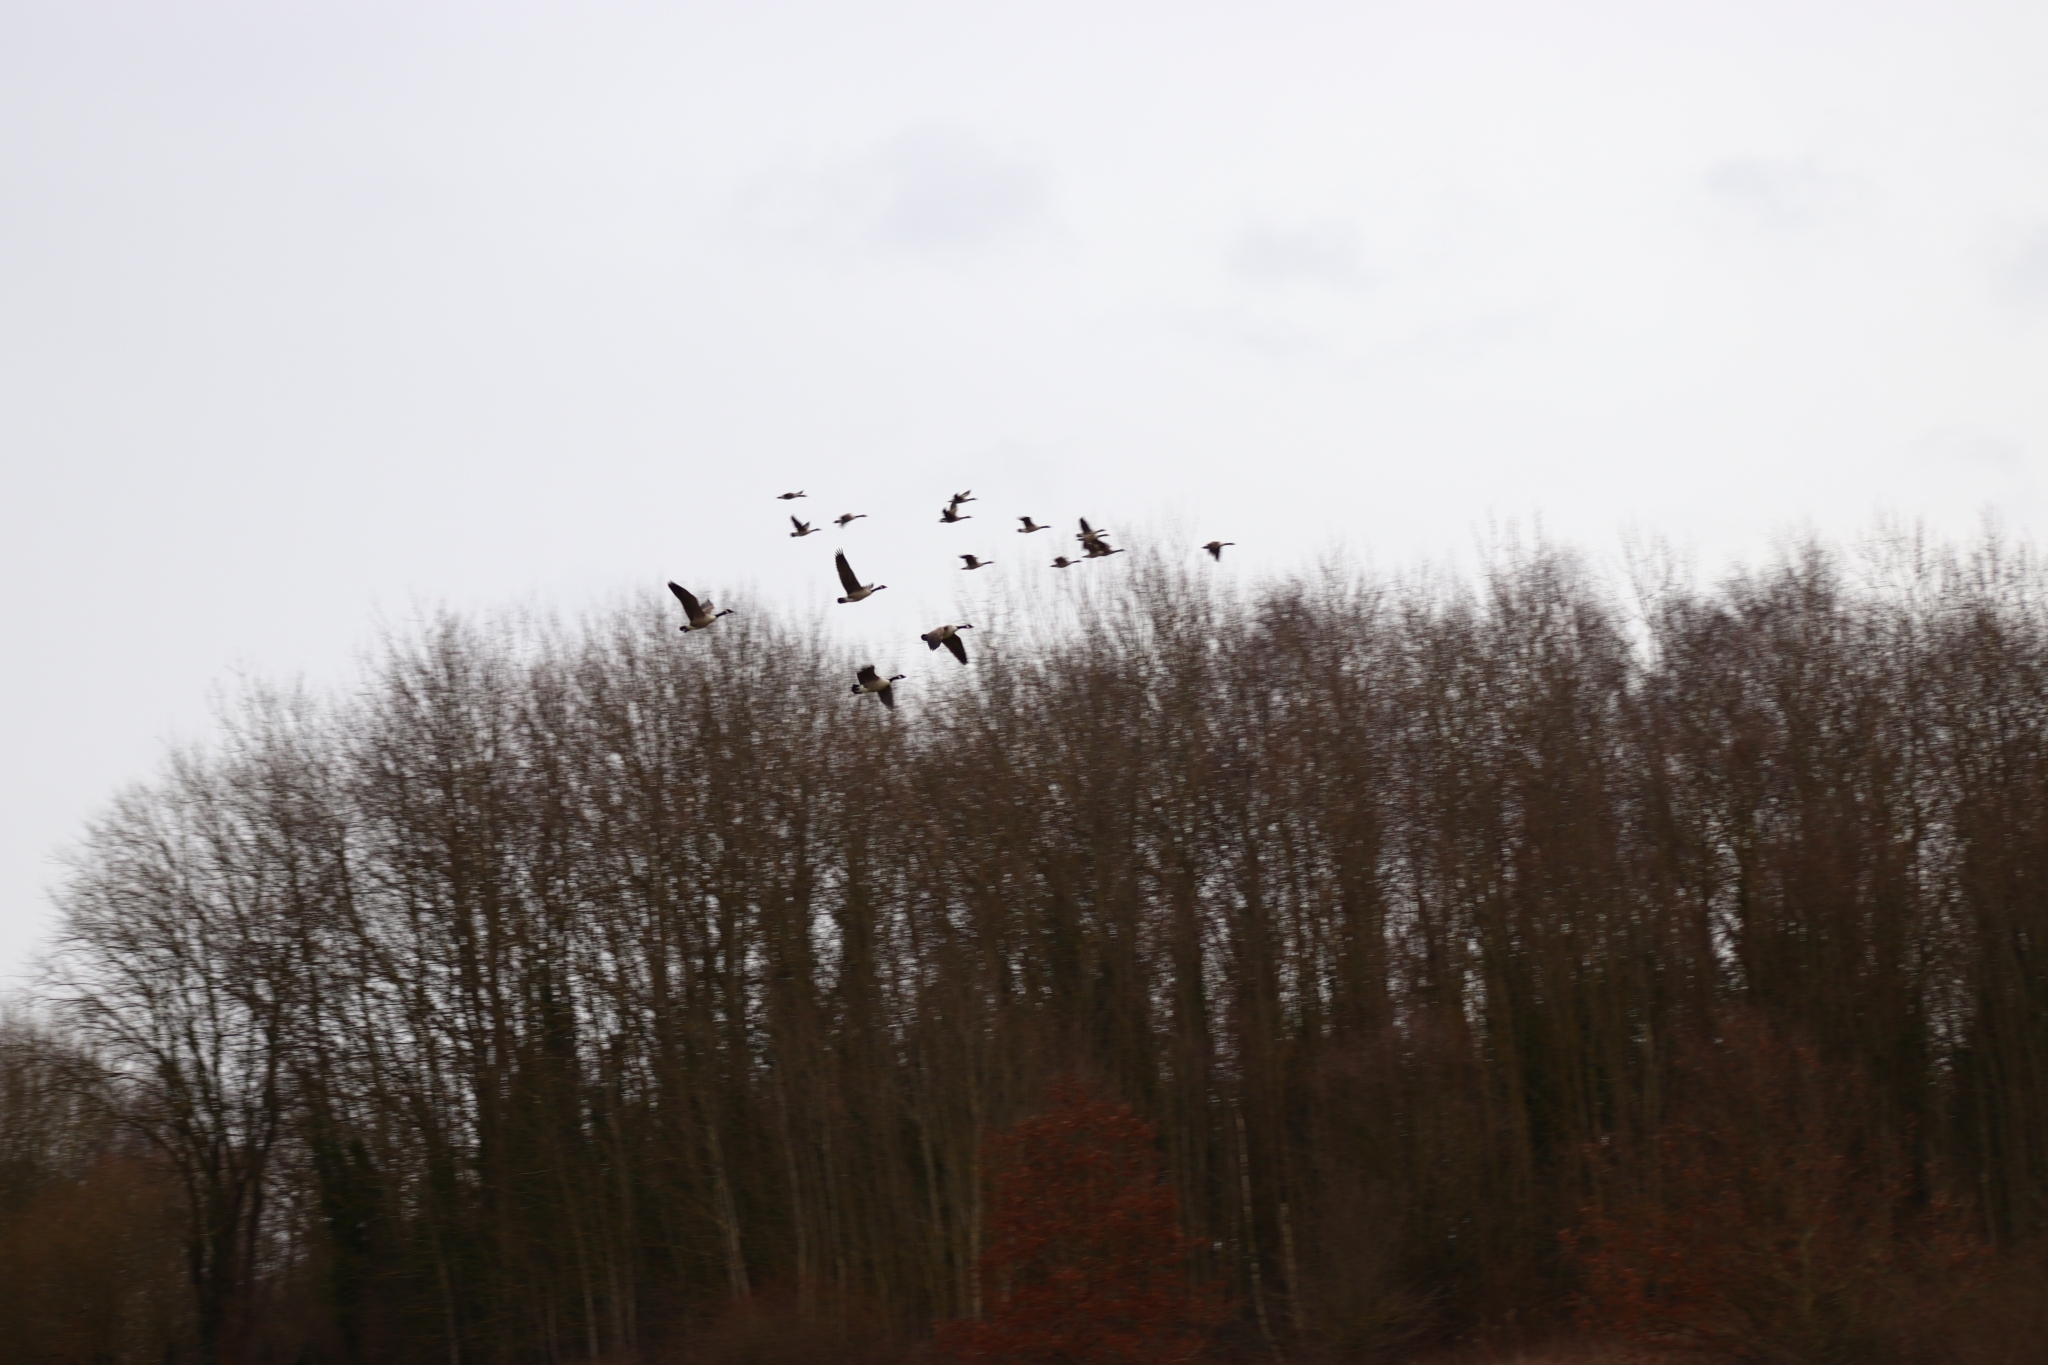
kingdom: Animalia
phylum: Chordata
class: Aves
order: Anseriformes
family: Anatidae
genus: Branta
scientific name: Branta canadensis
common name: Canada goose
